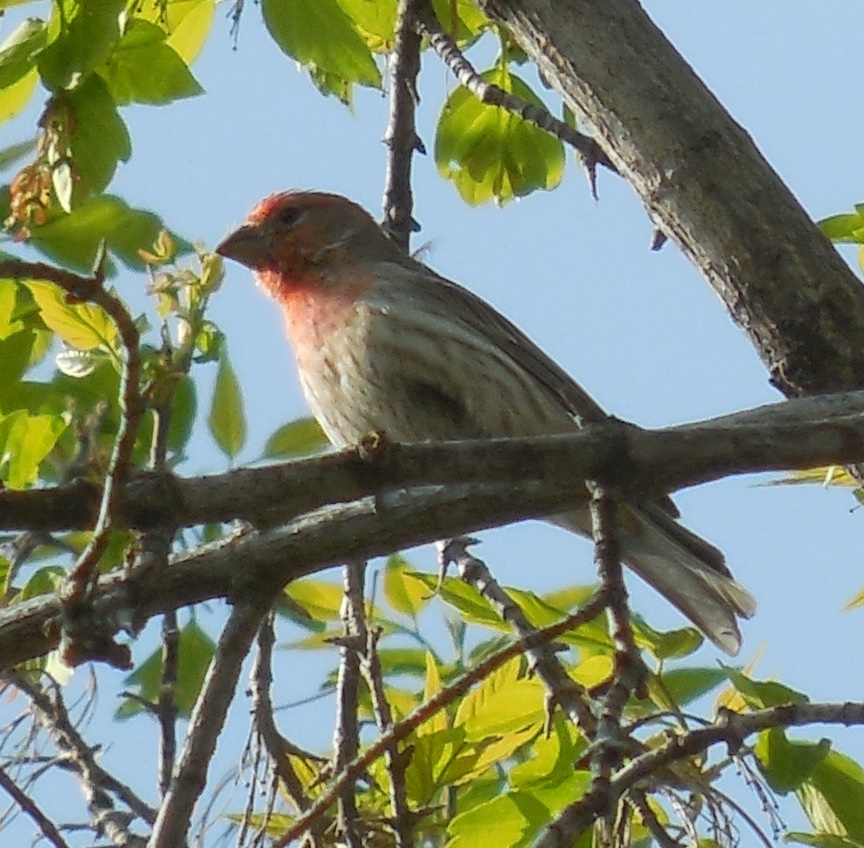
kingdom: Animalia
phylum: Chordata
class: Aves
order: Passeriformes
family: Fringillidae
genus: Haemorhous
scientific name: Haemorhous mexicanus
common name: House finch
